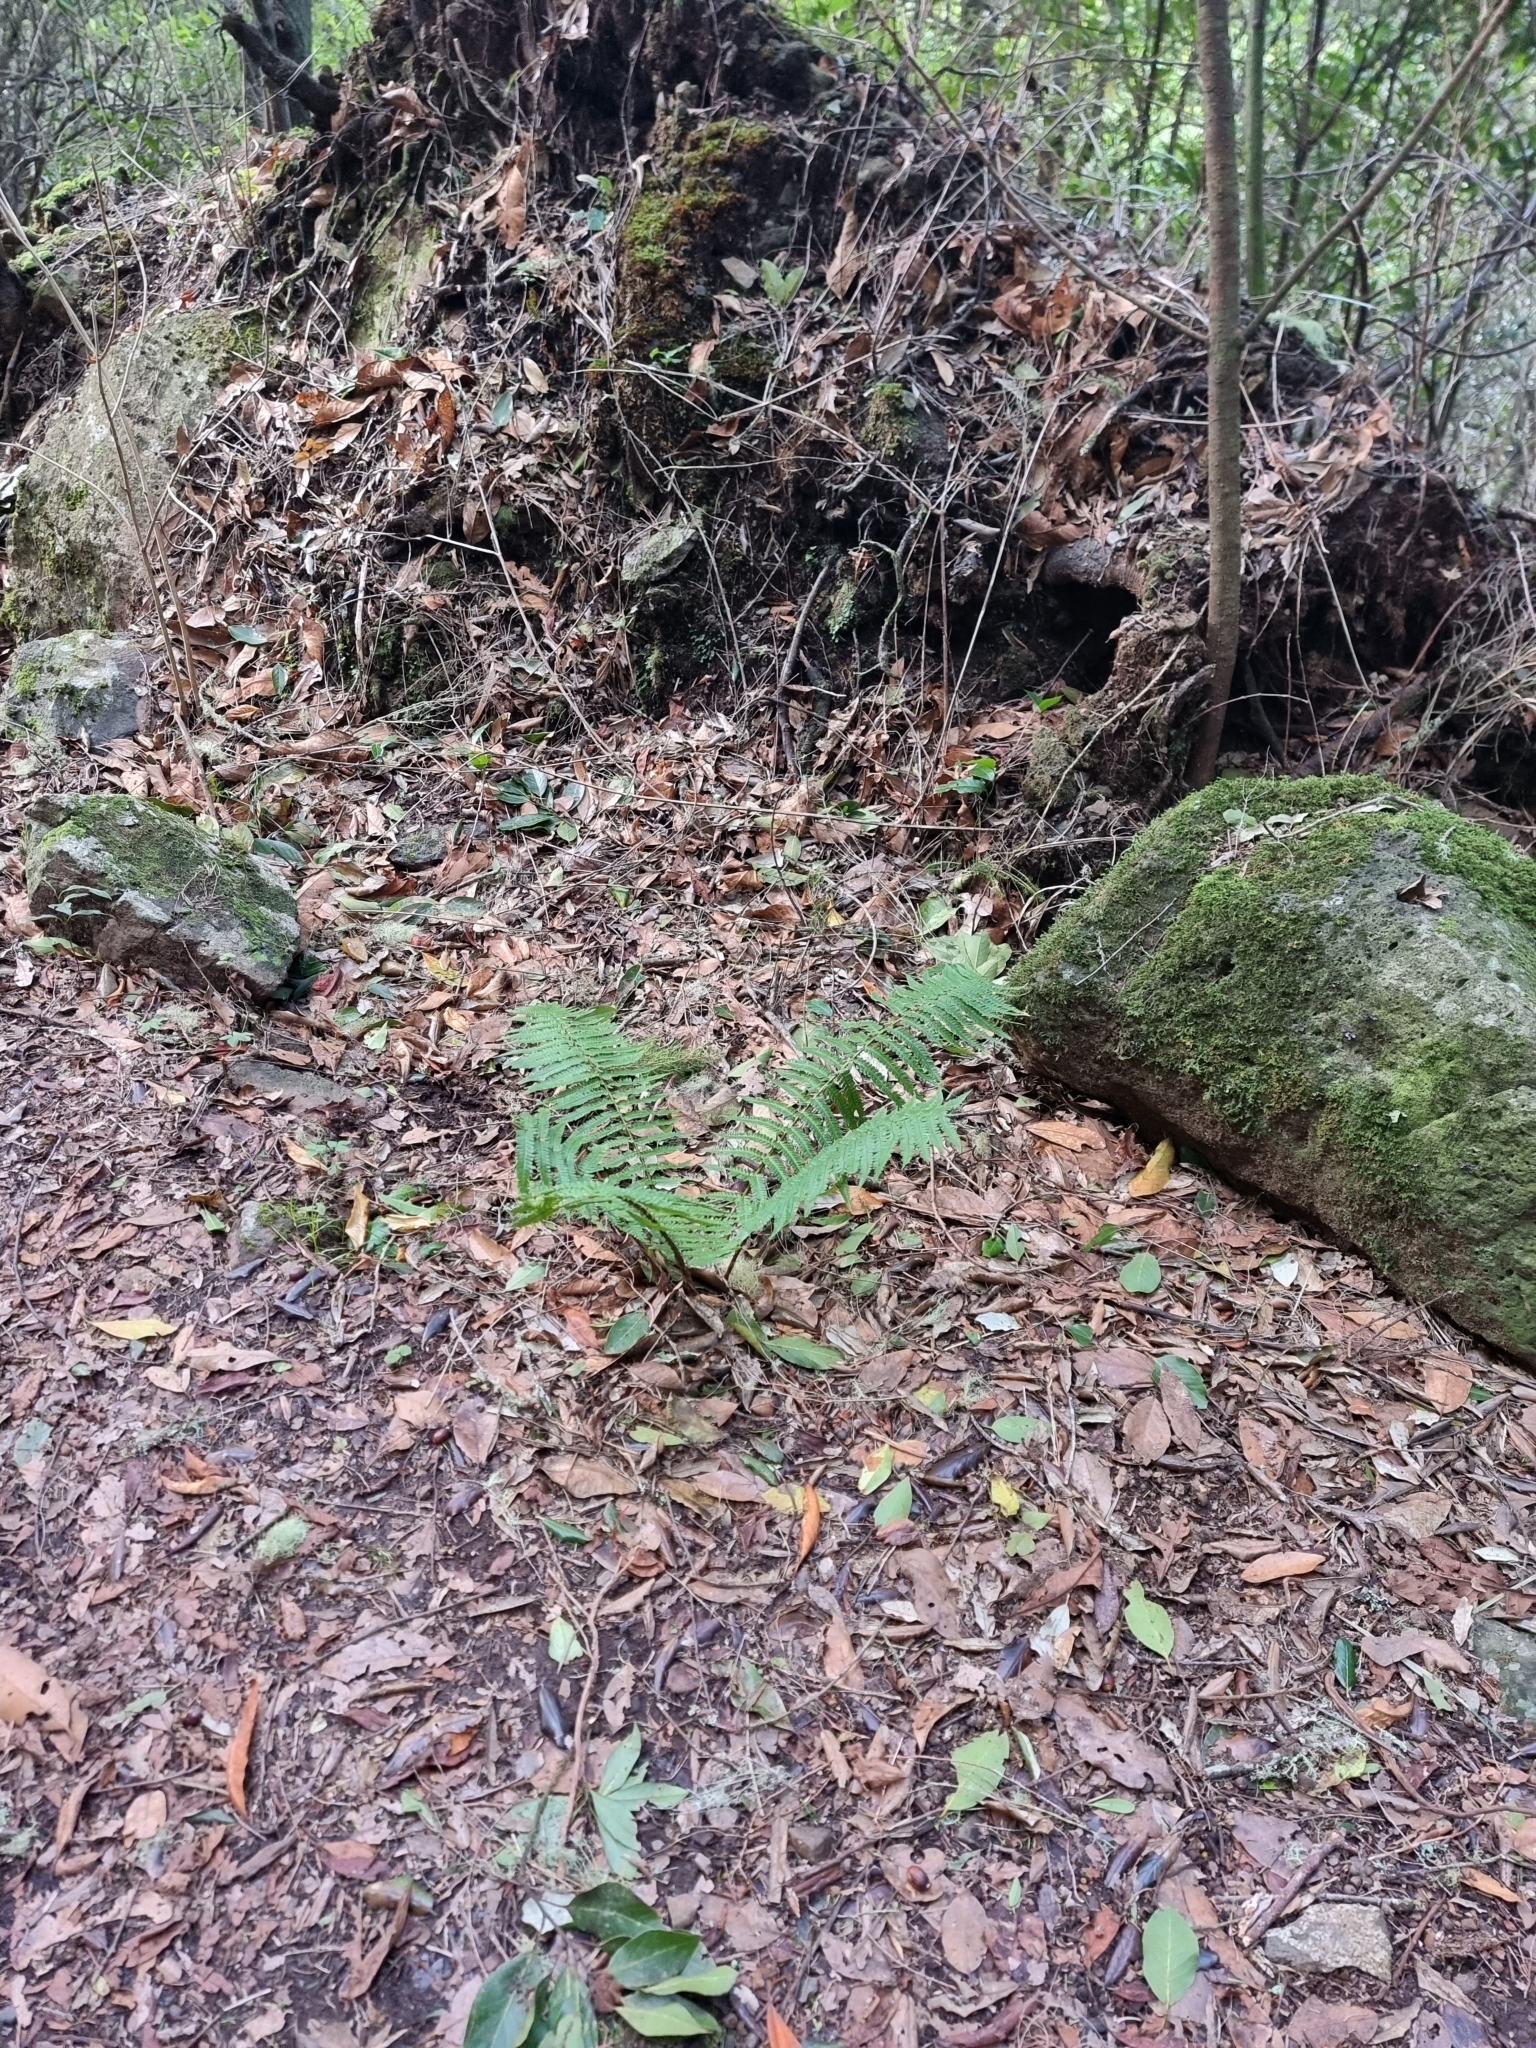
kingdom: Plantae
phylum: Tracheophyta
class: Polypodiopsida
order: Polypodiales
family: Dryopteridaceae
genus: Dryopteris
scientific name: Dryopteris affinis
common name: Scaly male fern
